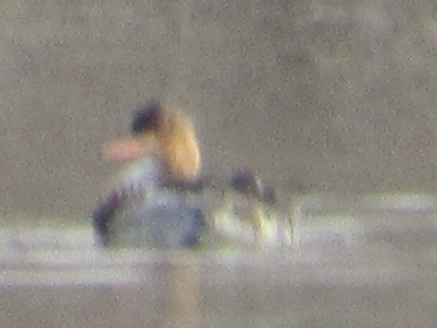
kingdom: Animalia
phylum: Chordata
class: Aves
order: Anseriformes
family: Anatidae
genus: Mergus
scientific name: Mergus serrator
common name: Red-breasted merganser
